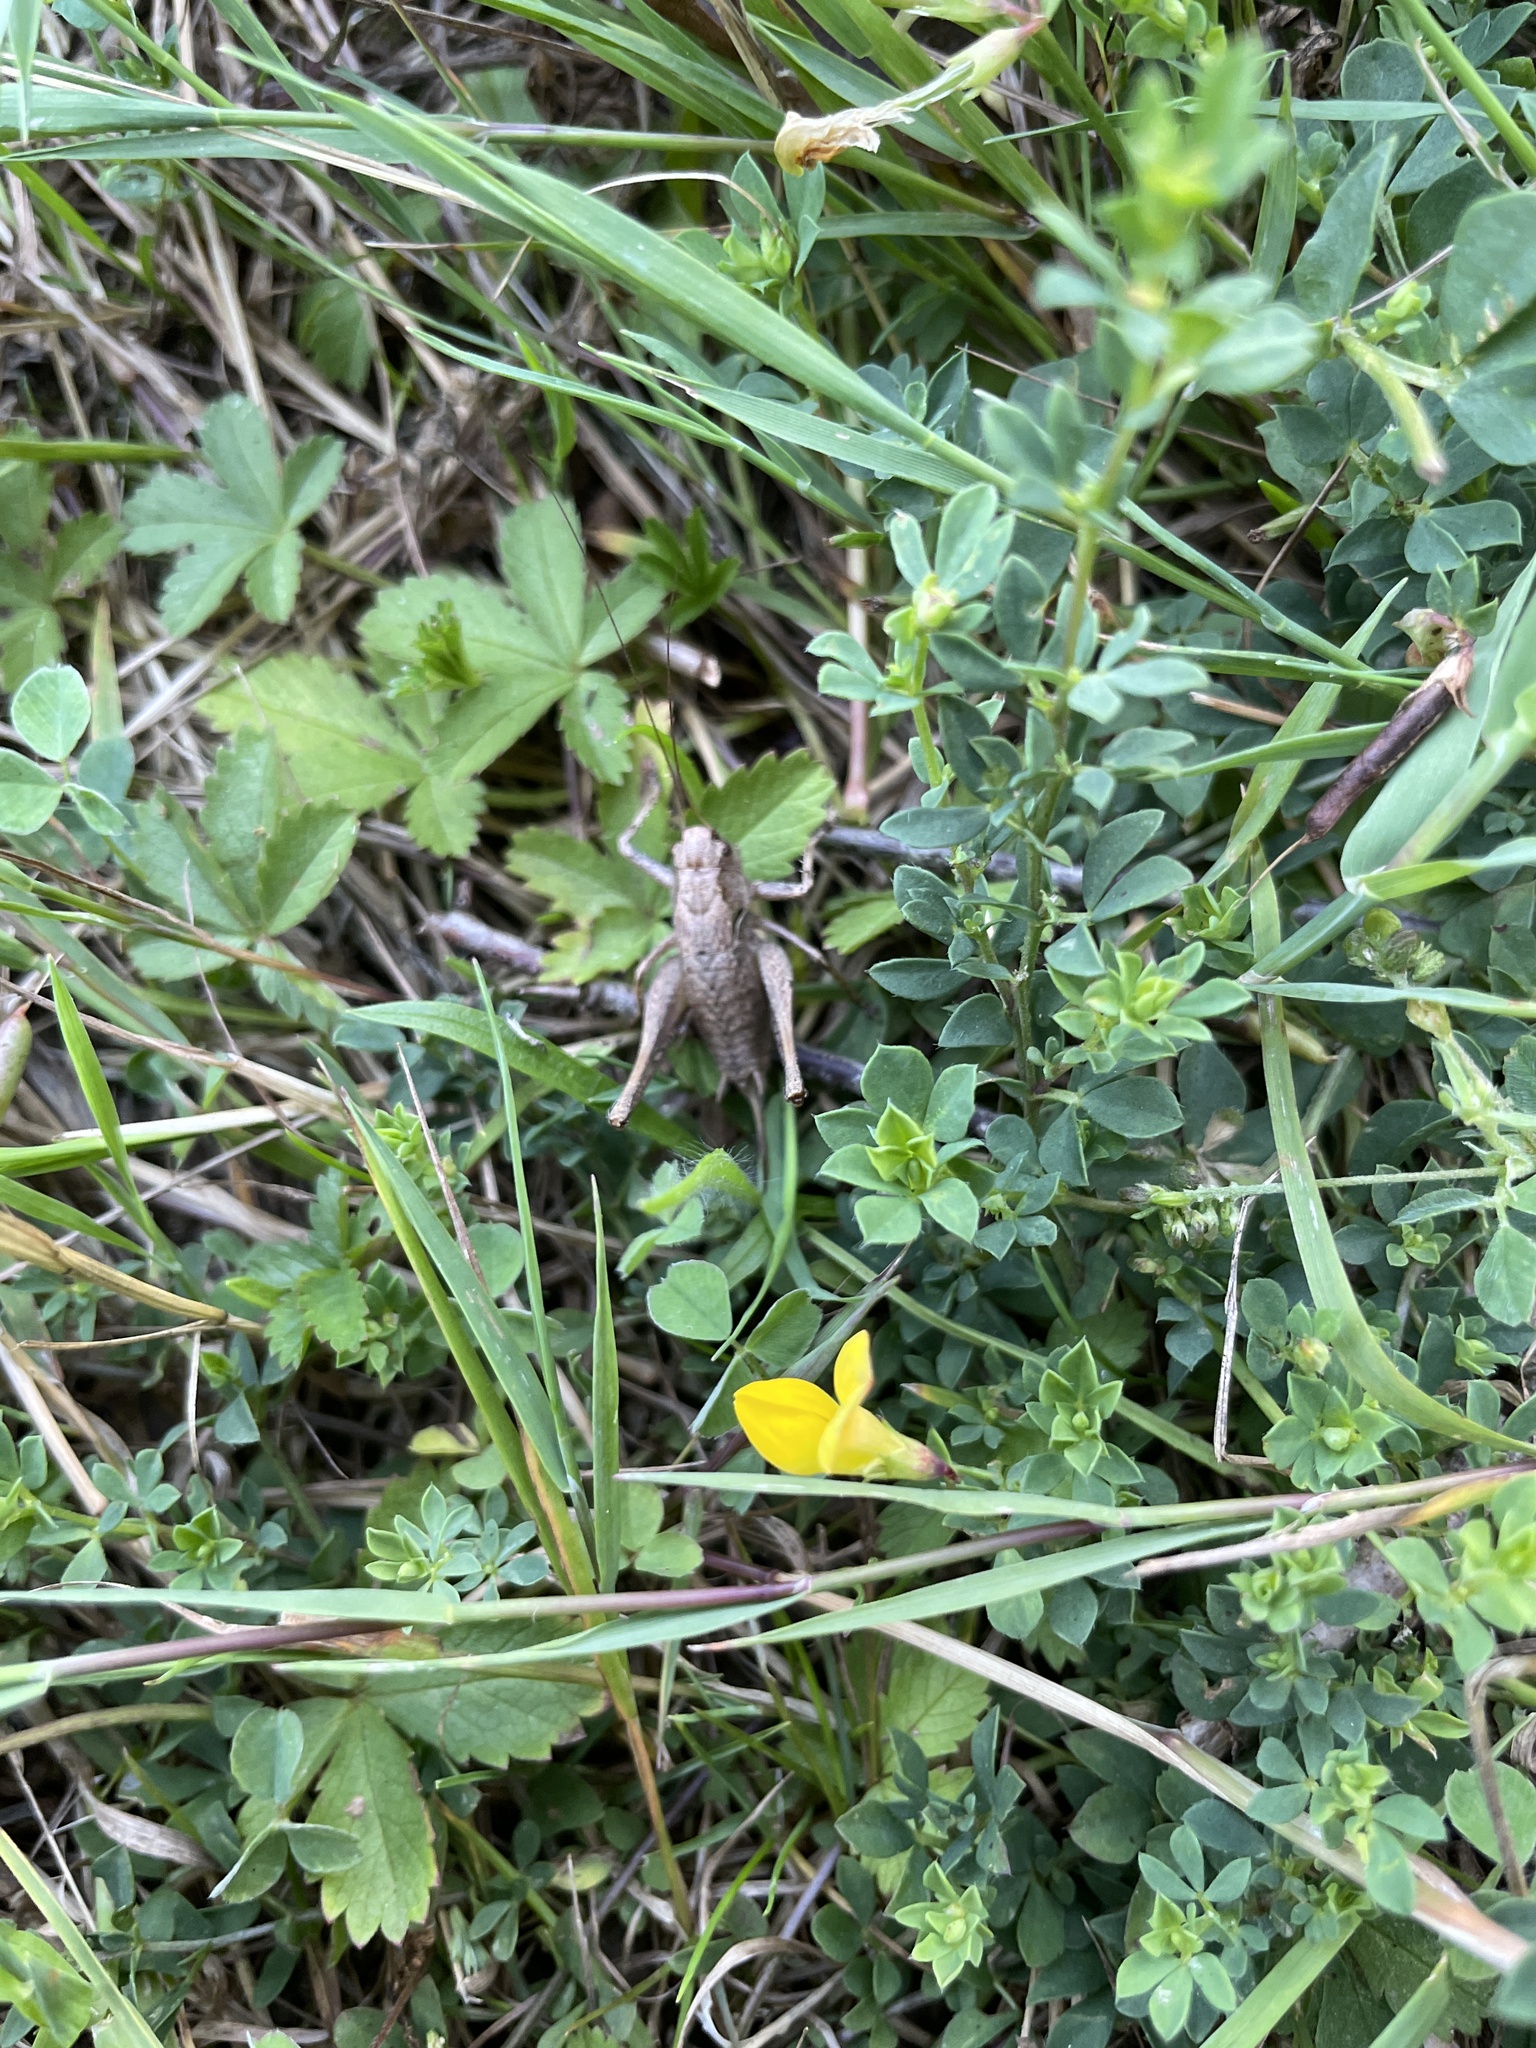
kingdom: Animalia
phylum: Arthropoda
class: Insecta
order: Orthoptera
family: Tettigoniidae
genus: Pholidoptera
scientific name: Pholidoptera griseoaptera
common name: Dark bush-cricket
